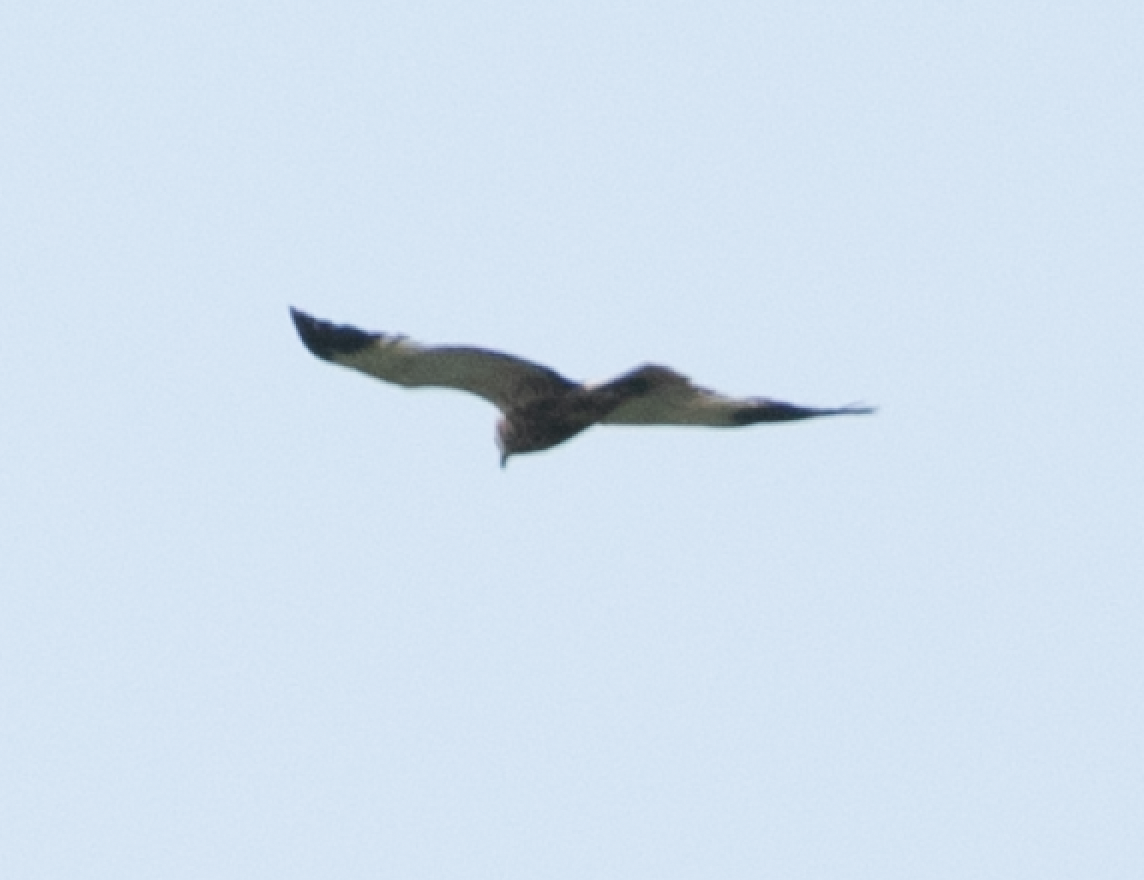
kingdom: Animalia
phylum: Chordata
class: Aves
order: Accipitriformes
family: Accipitridae
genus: Circus
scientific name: Circus aeruginosus
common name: Western marsh harrier
